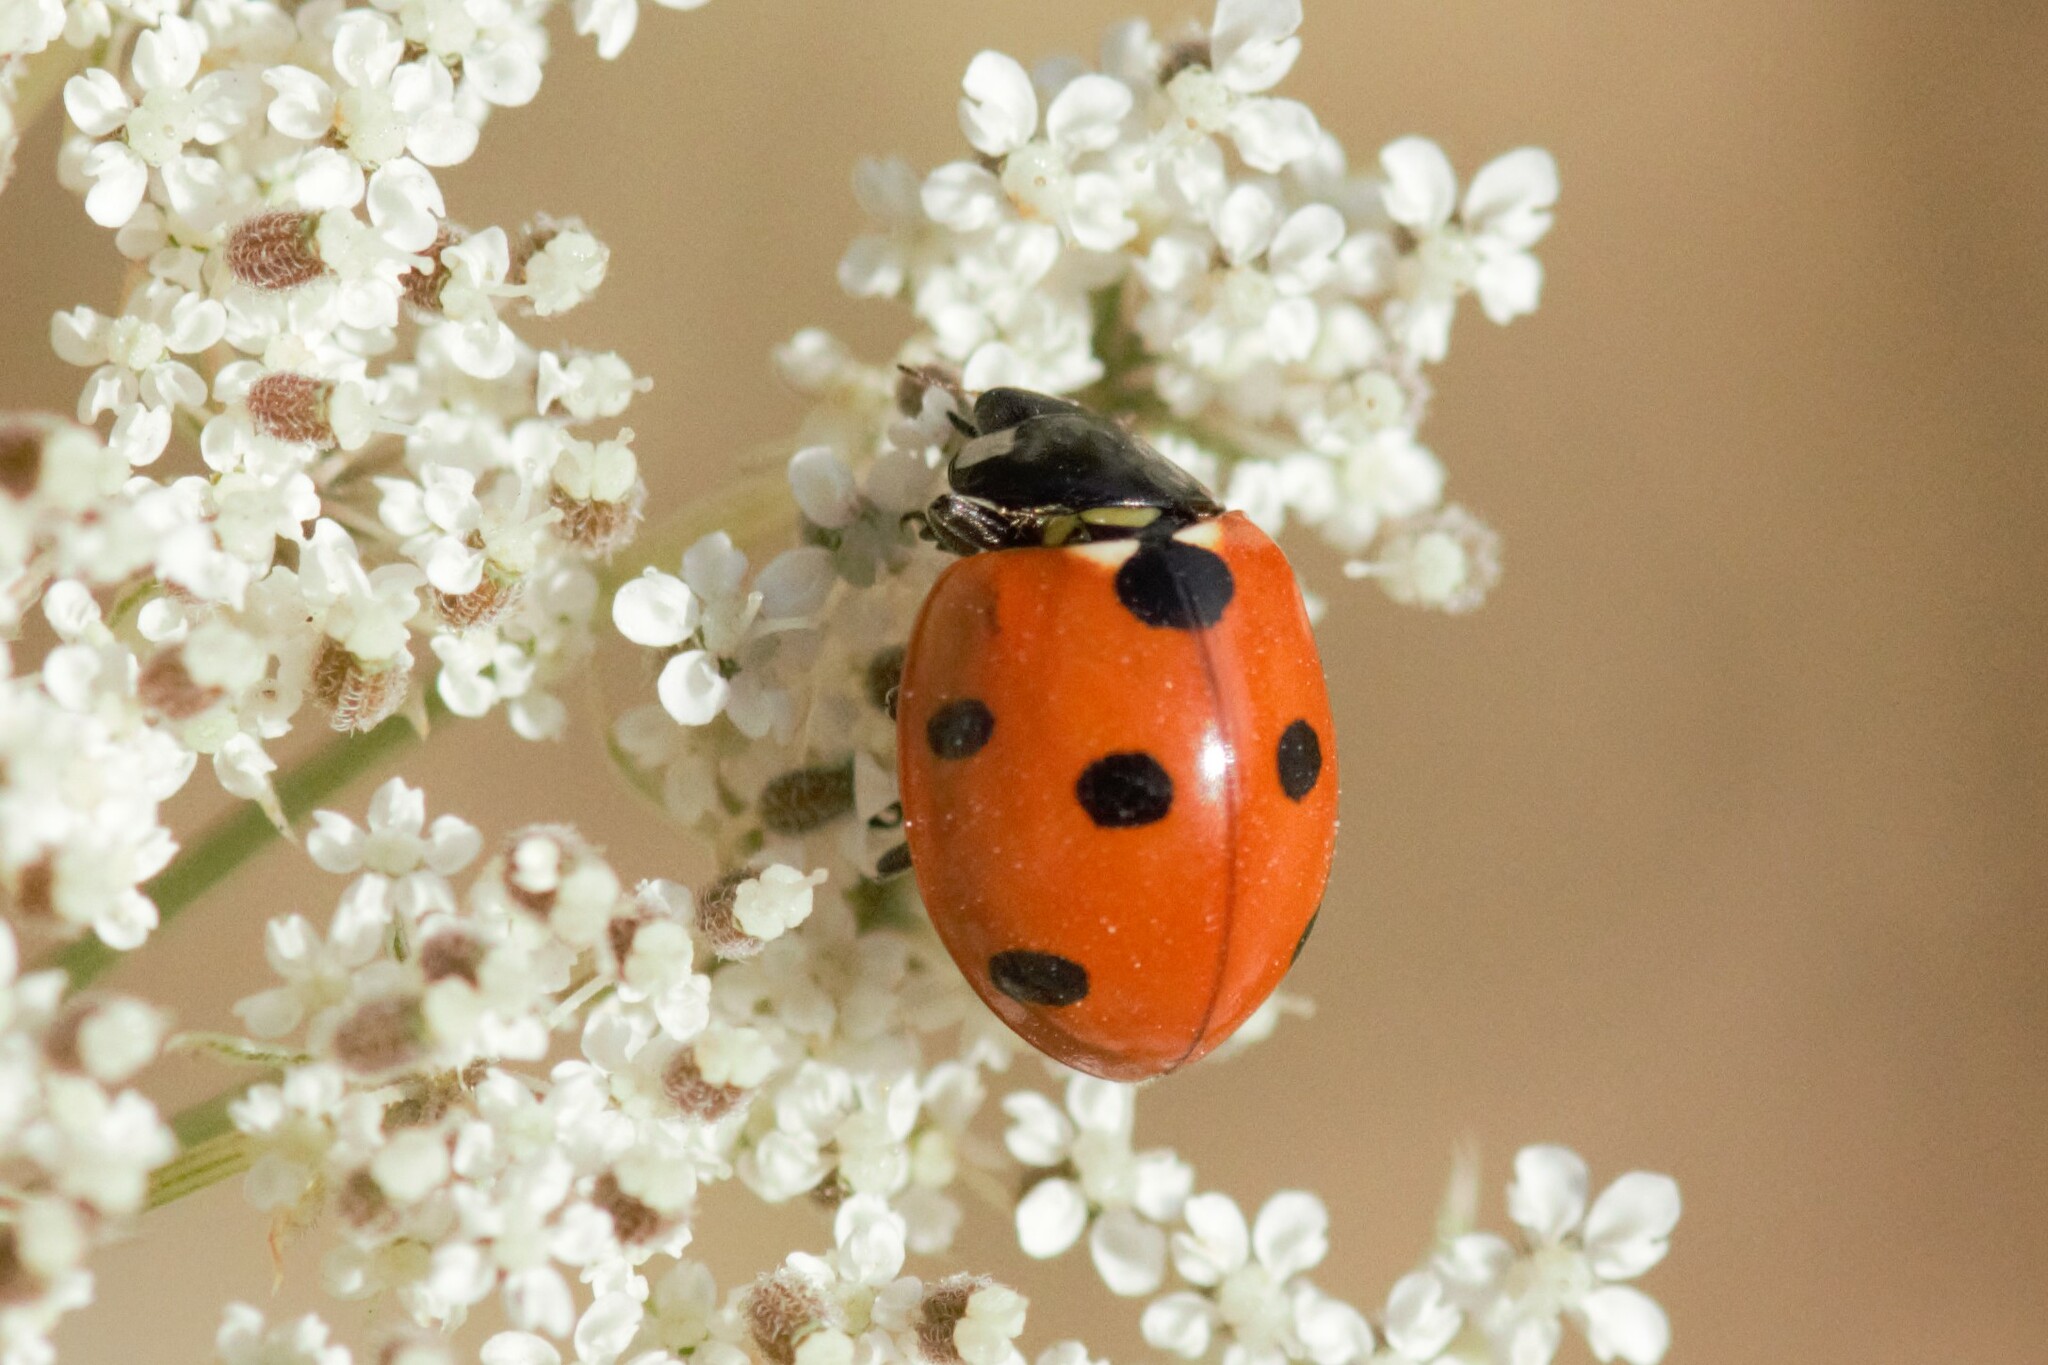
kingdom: Animalia
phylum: Arthropoda
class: Insecta
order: Coleoptera
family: Coccinellidae
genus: Coccinella
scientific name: Coccinella septempunctata
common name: Sevenspotted lady beetle
